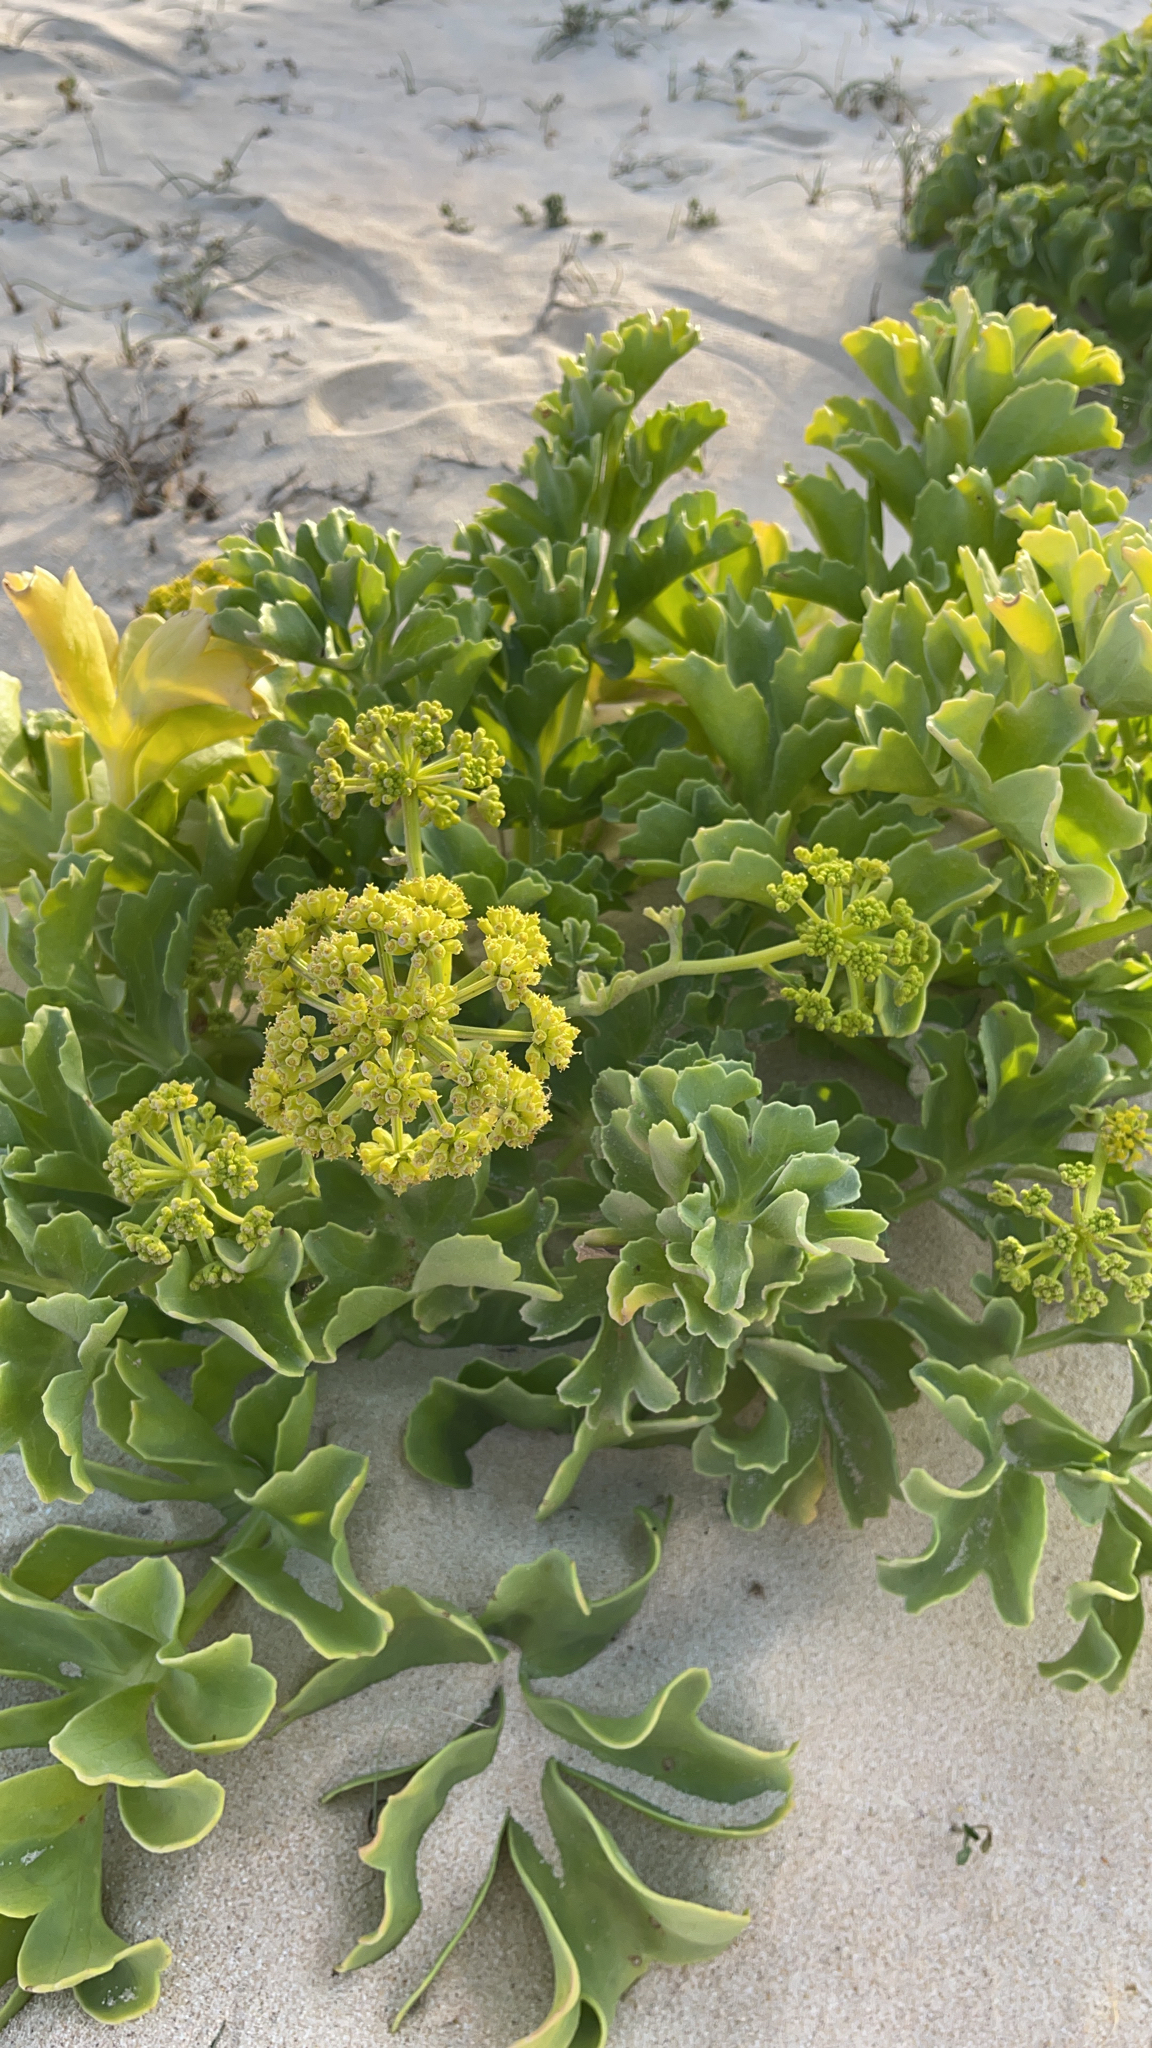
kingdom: Plantae
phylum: Tracheophyta
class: Magnoliopsida
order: Apiales
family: Apiaceae
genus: Astydamia
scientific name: Astydamia latifolia
